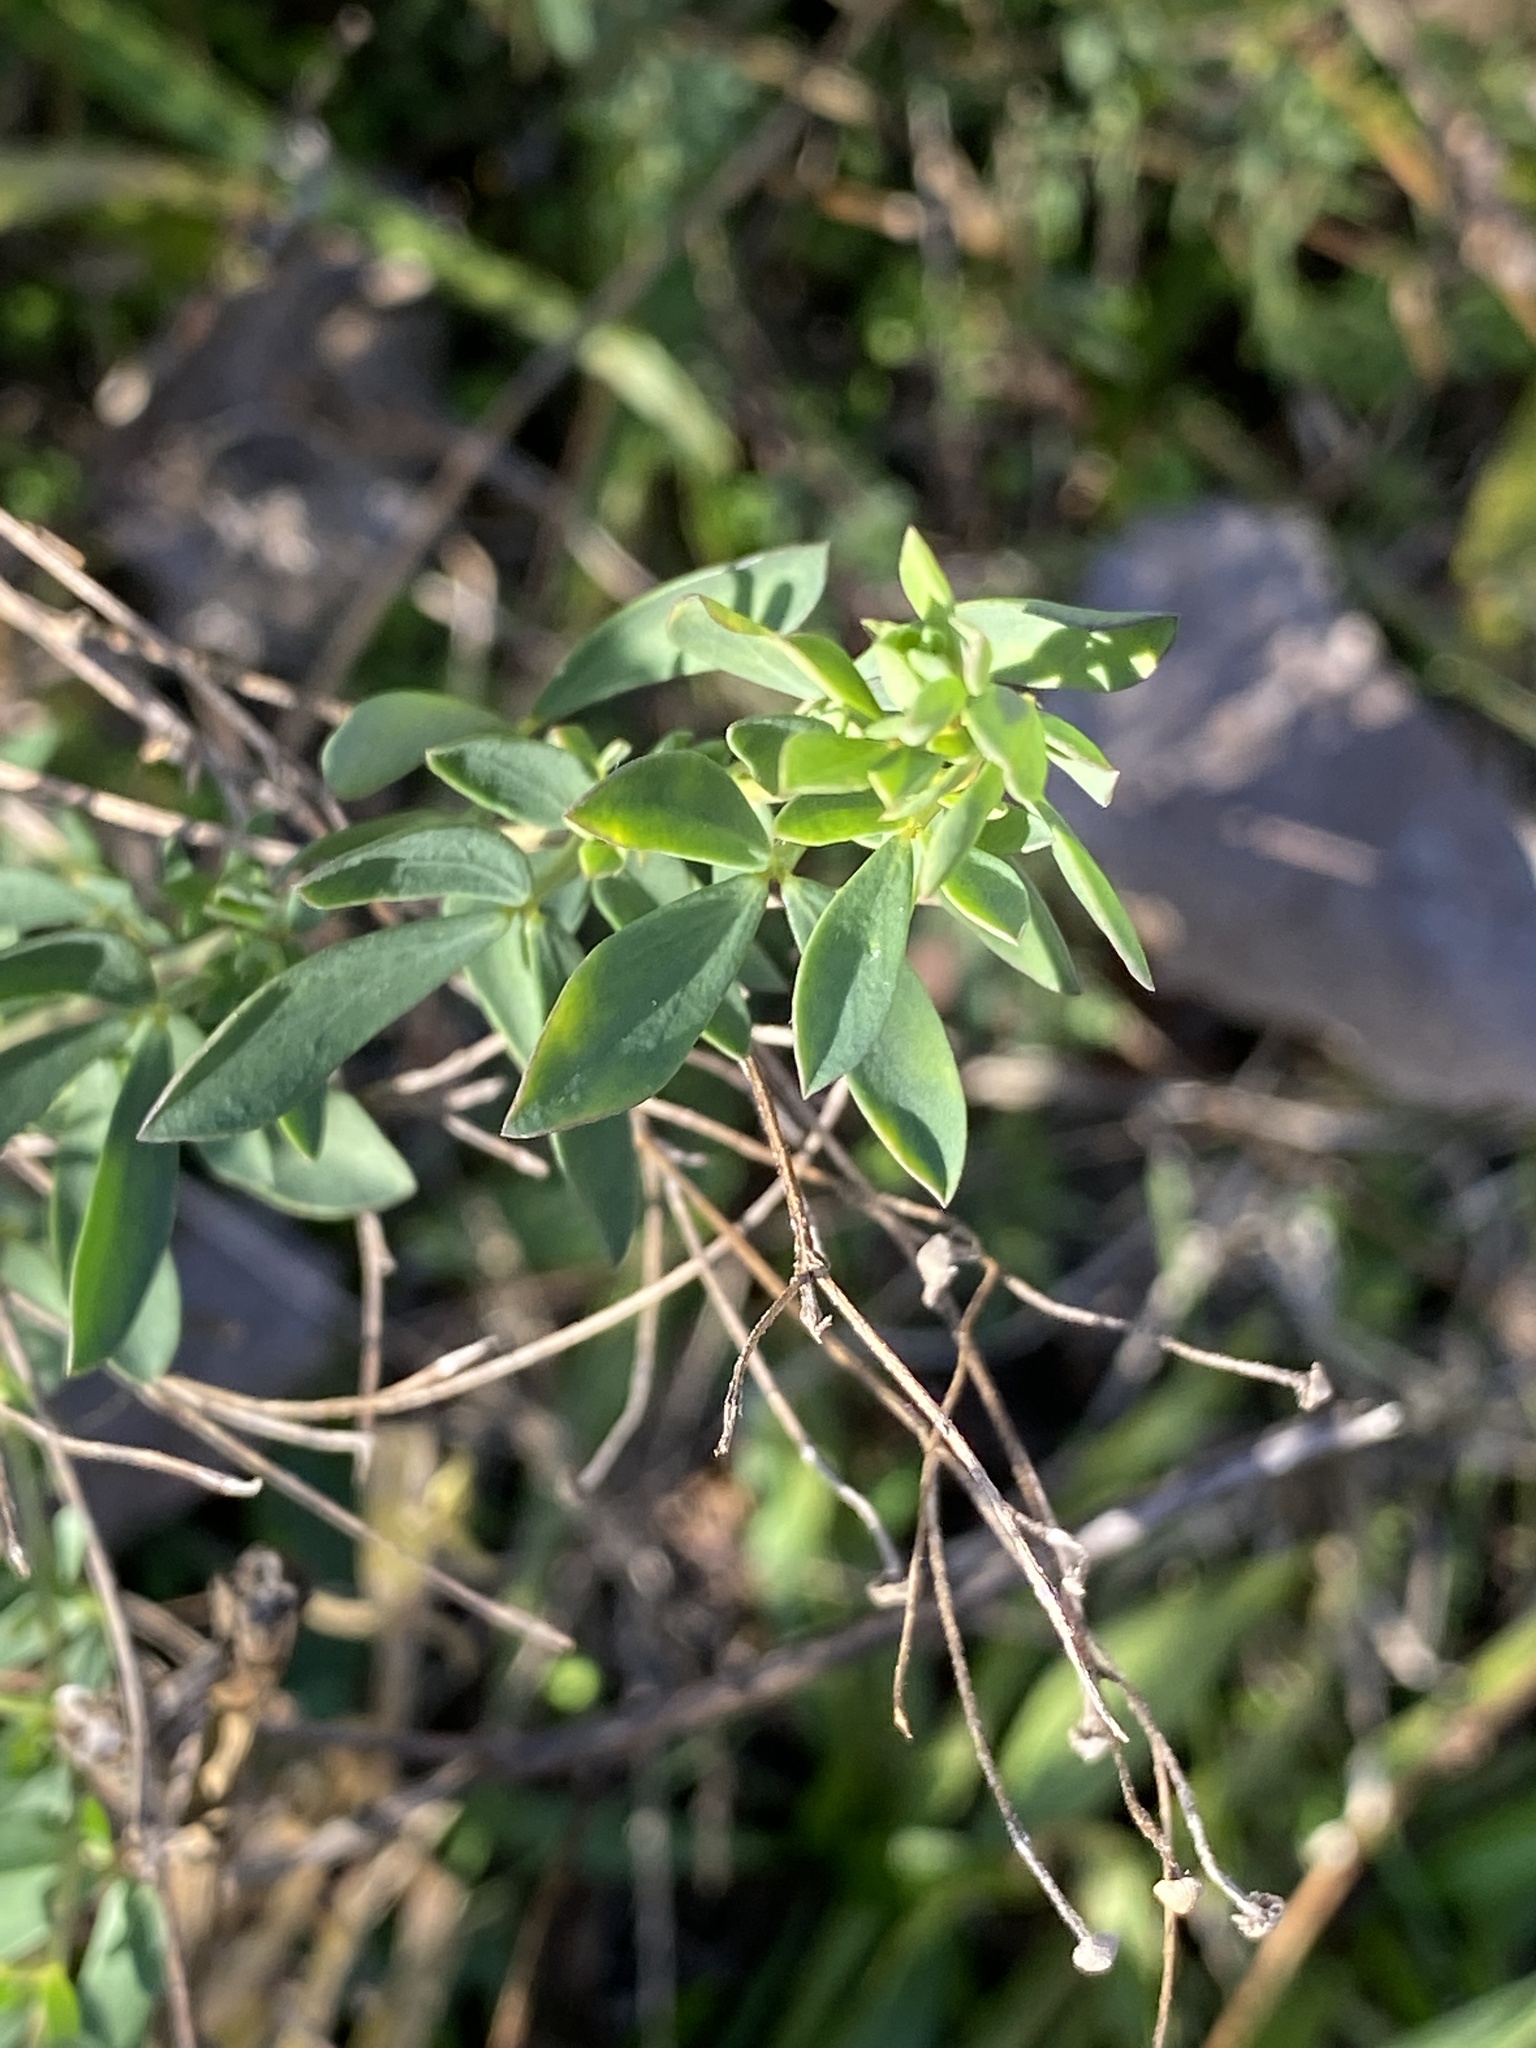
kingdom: Plantae
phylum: Tracheophyta
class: Magnoliopsida
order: Fabales
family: Fabaceae
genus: Lotus
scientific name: Lotus corniculatus
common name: Common bird's-foot-trefoil
